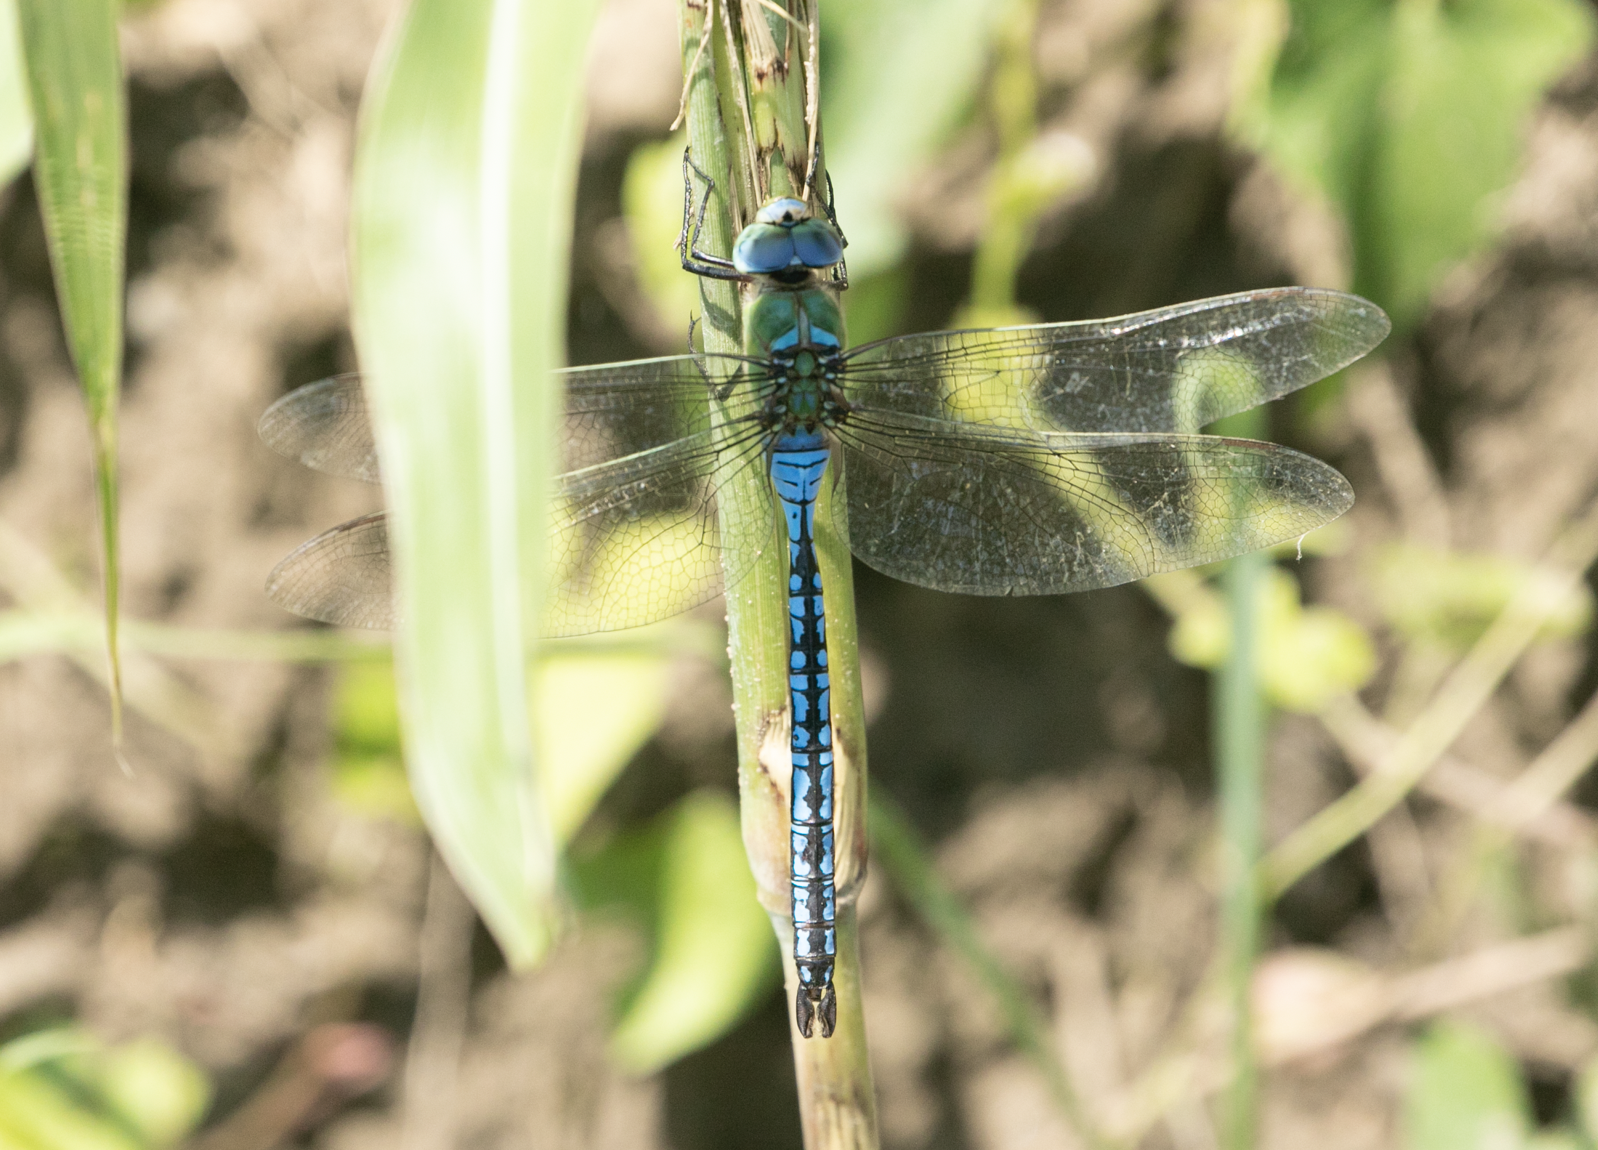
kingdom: Animalia
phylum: Arthropoda
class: Insecta
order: Odonata
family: Aeshnidae
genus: Anax
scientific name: Anax imperator
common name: Emperor dragonfly
